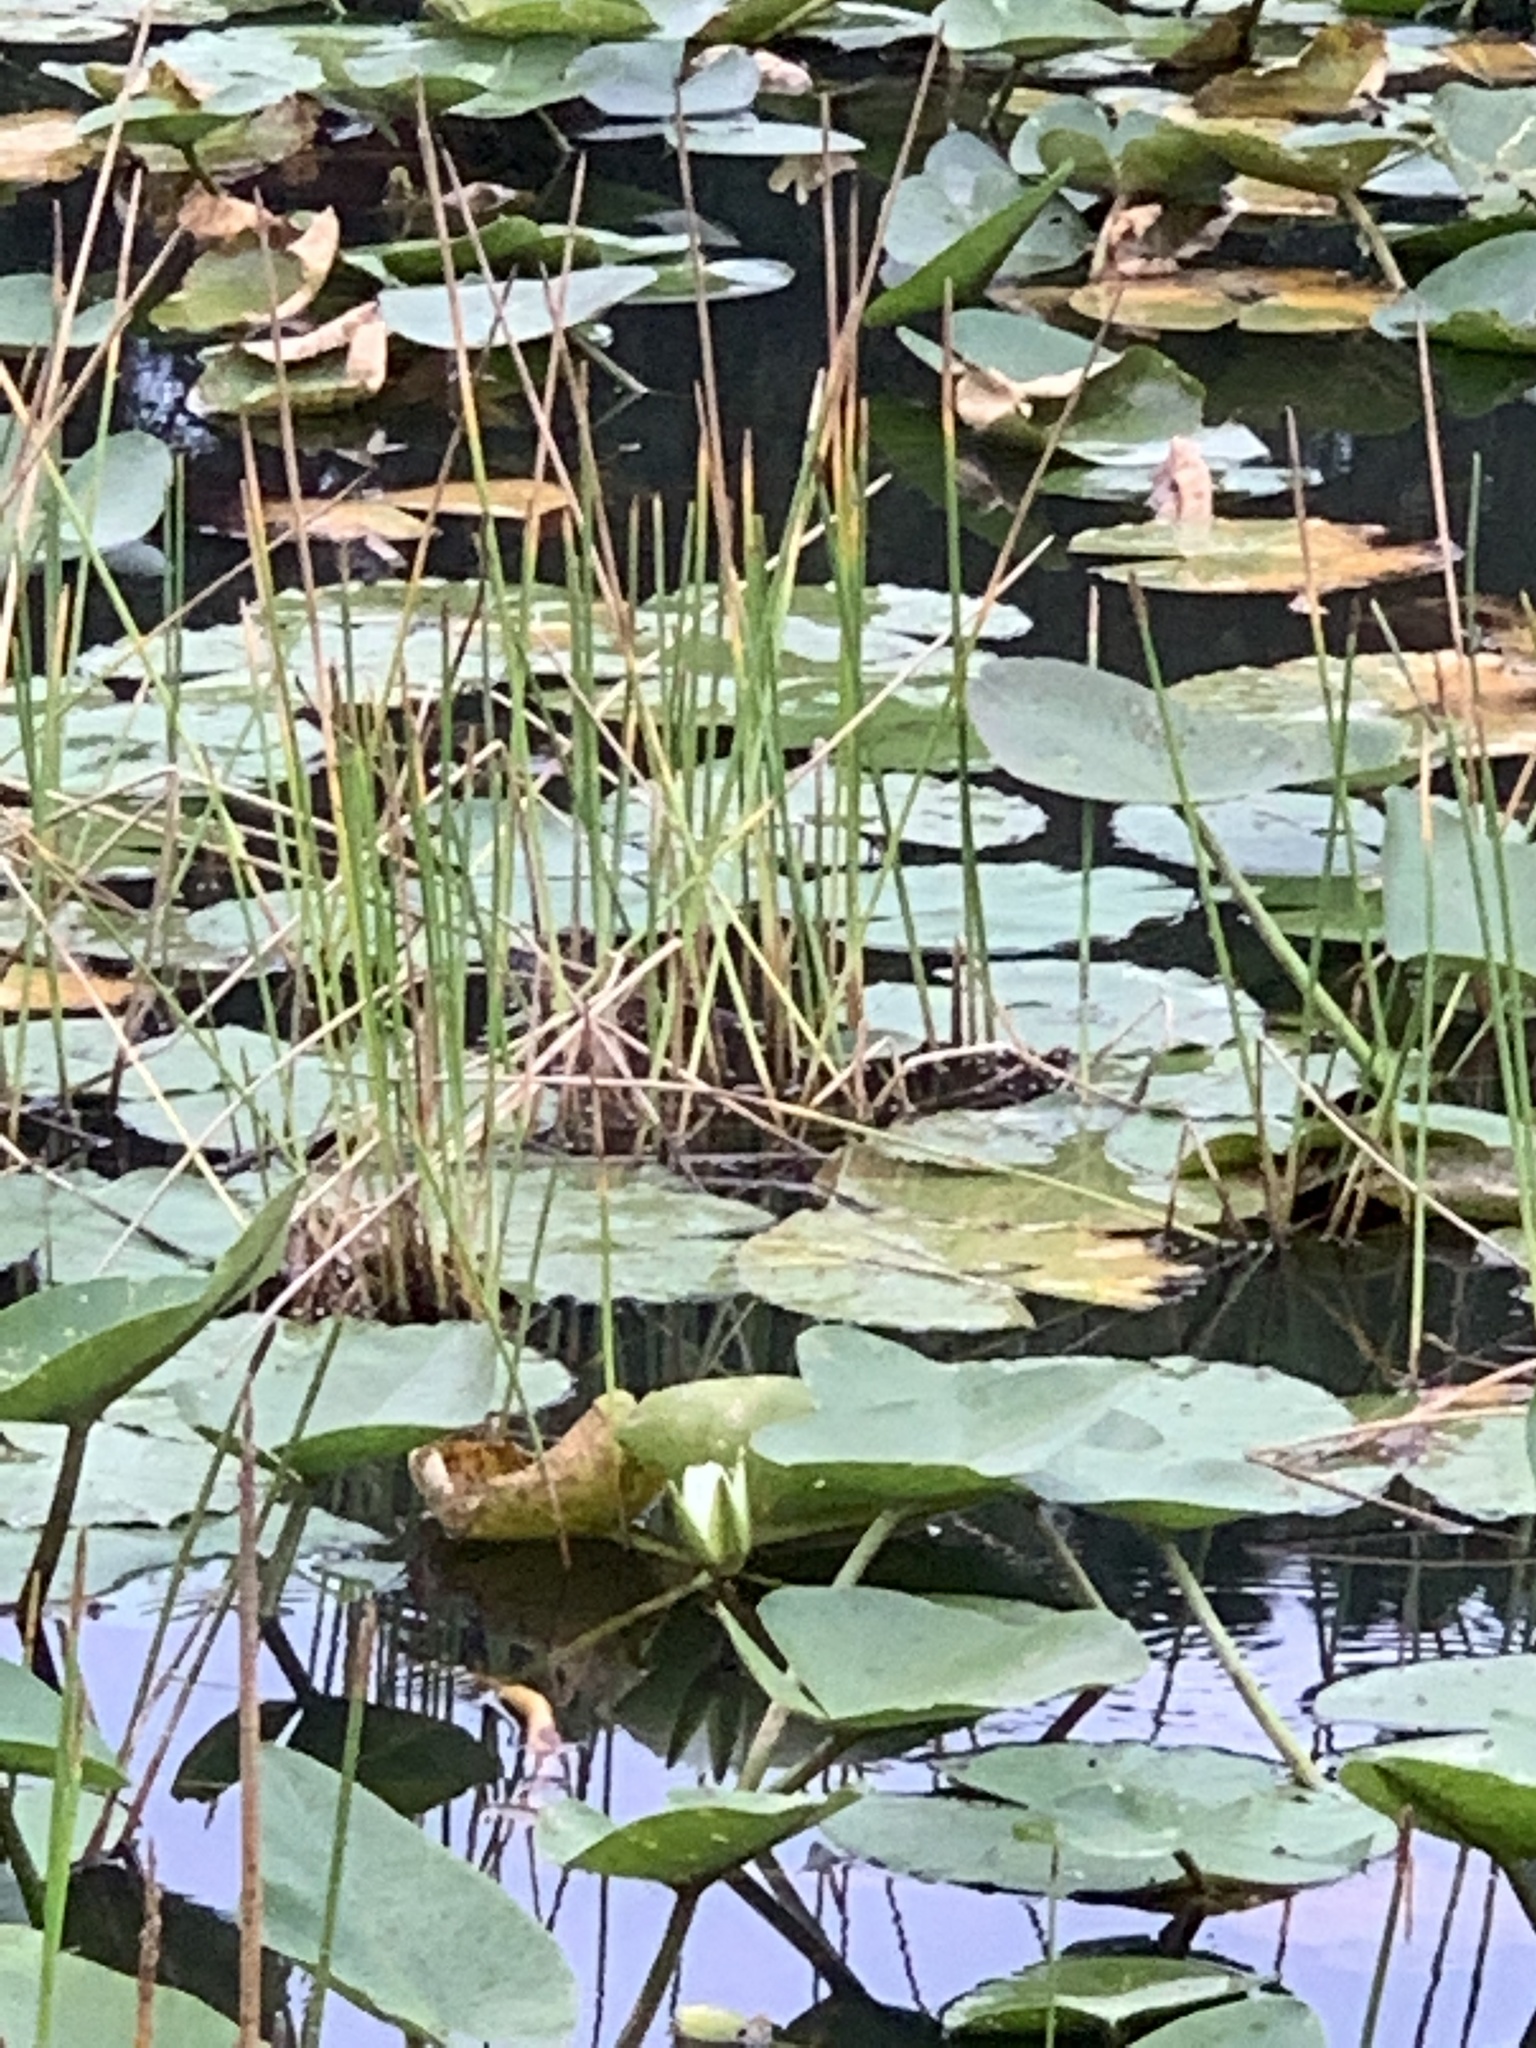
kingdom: Plantae
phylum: Tracheophyta
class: Magnoliopsida
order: Nymphaeales
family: Nymphaeaceae
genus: Nymphaea
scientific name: Nymphaea odorata
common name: Fragrant water-lily
